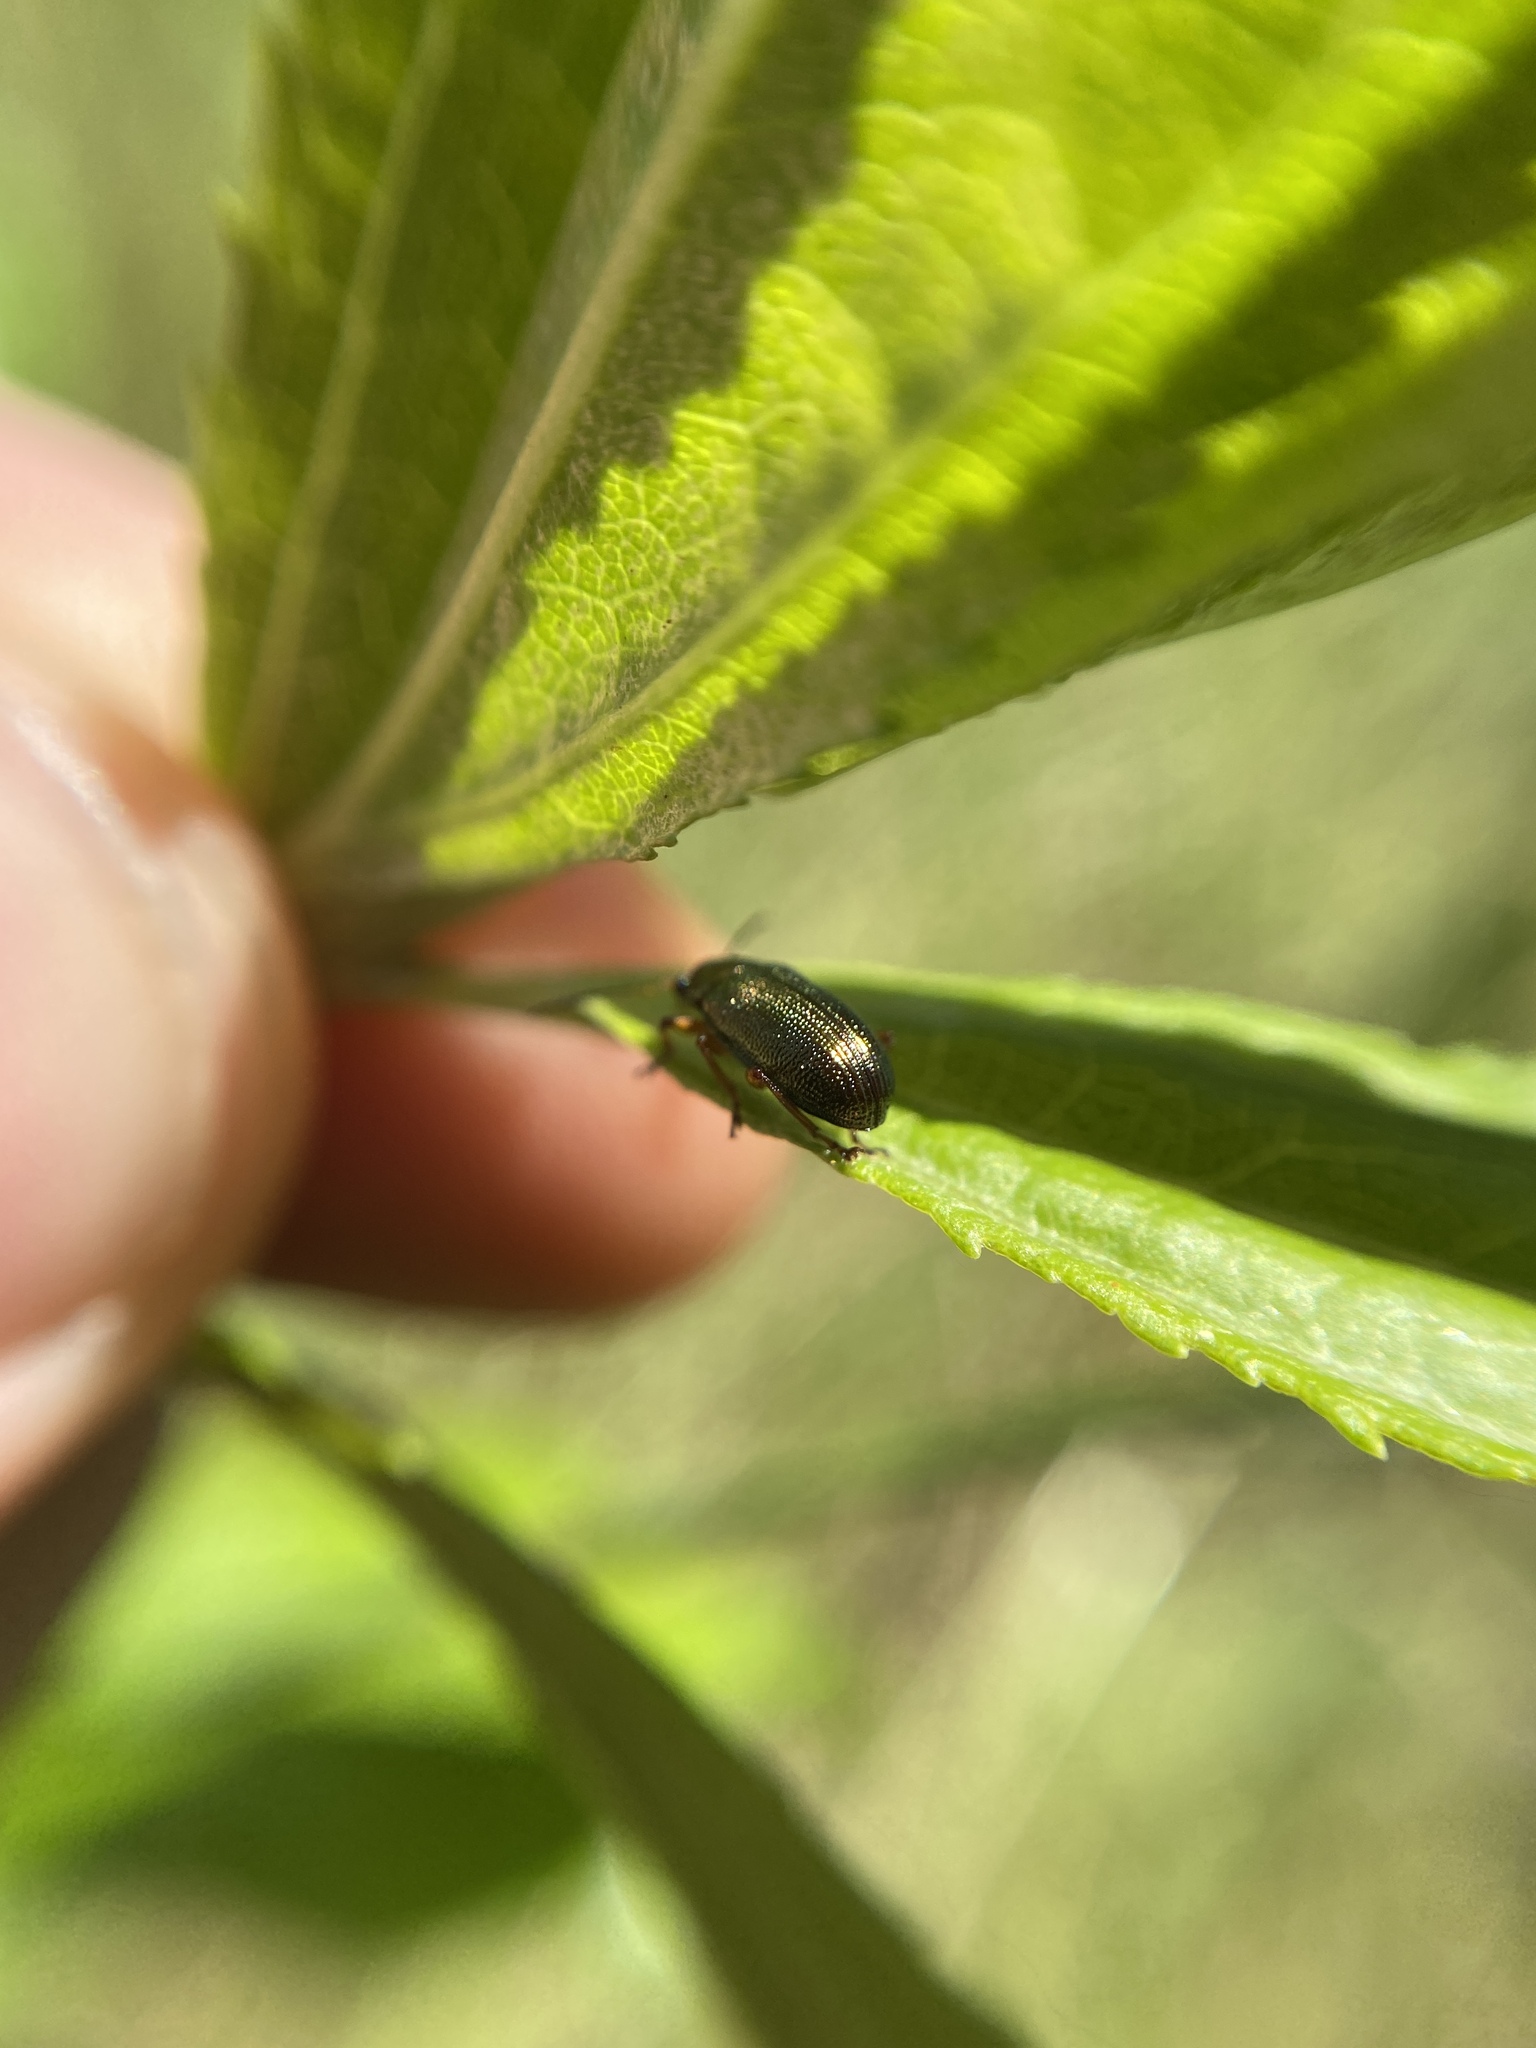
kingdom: Animalia
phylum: Arthropoda
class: Insecta
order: Lepidoptera
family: Nymphalidae
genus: Ortilia
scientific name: Ortilia ithra
